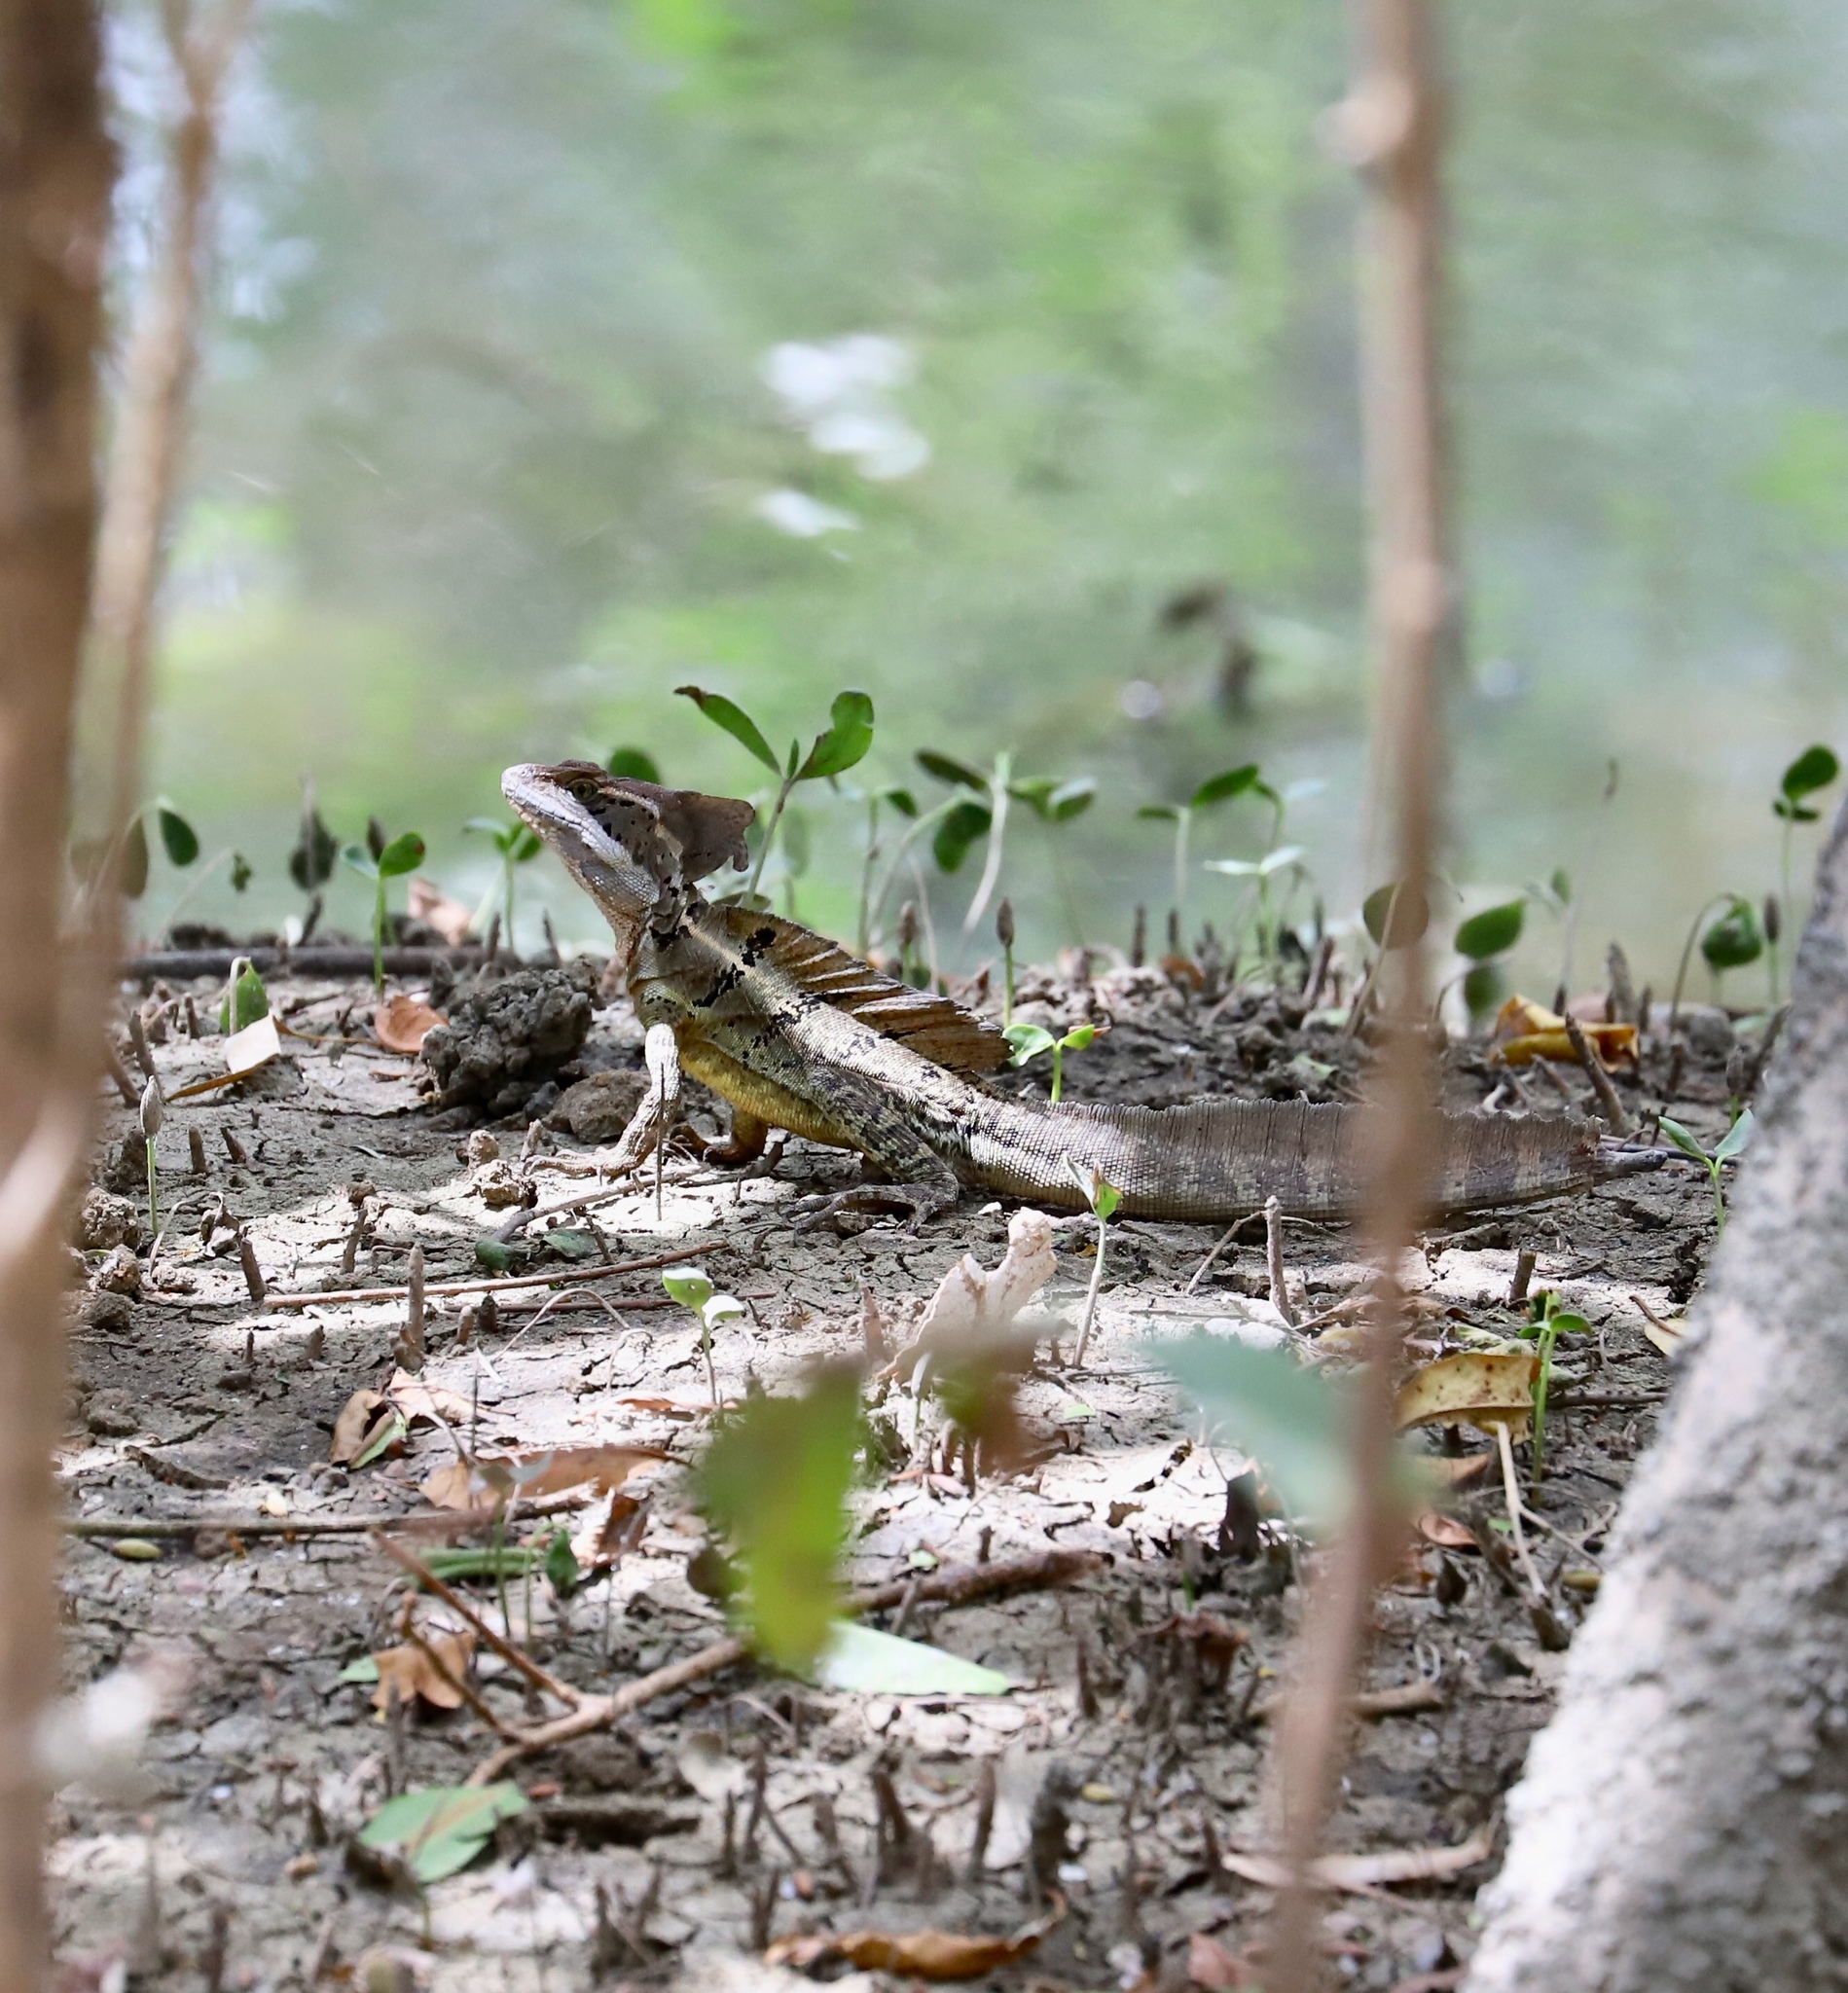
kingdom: Animalia
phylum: Chordata
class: Squamata
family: Corytophanidae
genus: Basiliscus
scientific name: Basiliscus basiliscus
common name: Common basilisk
